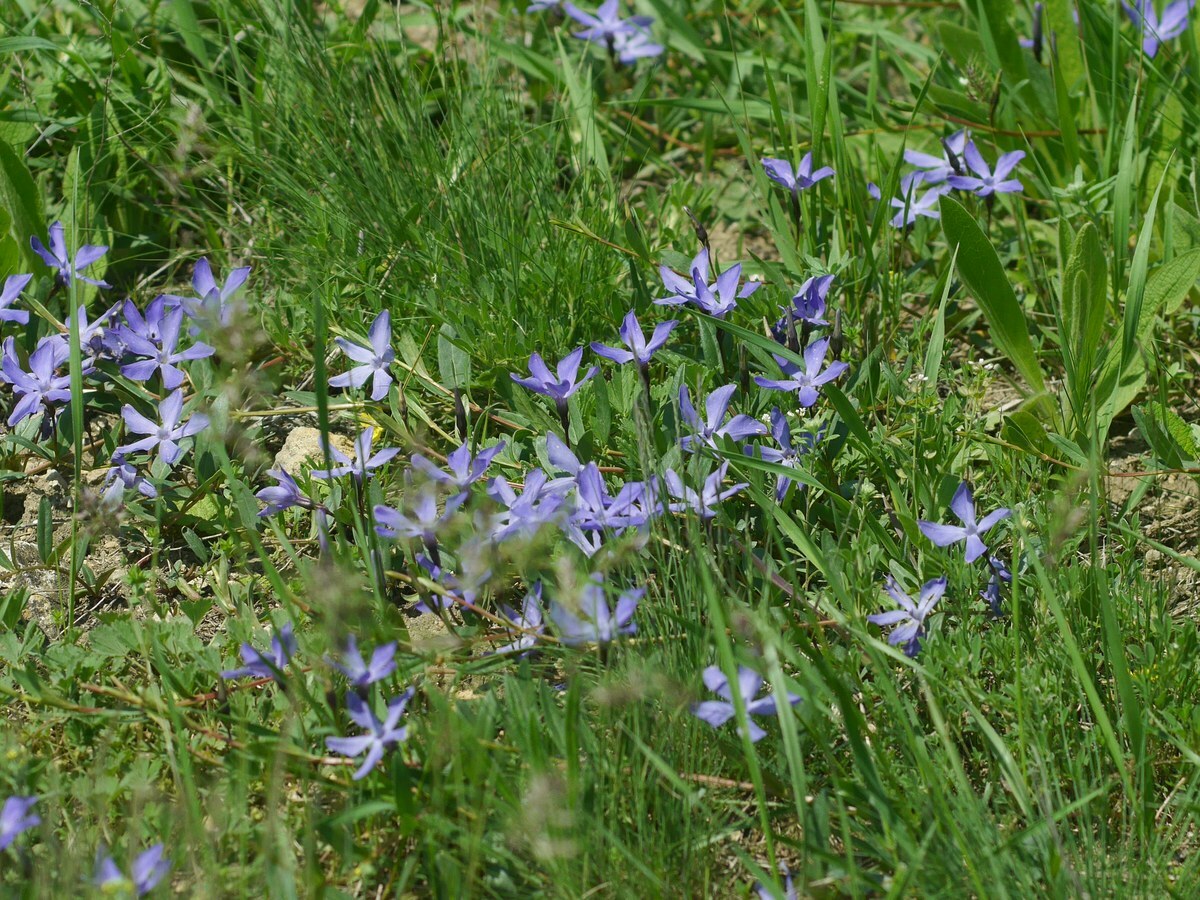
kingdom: Plantae
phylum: Tracheophyta
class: Magnoliopsida
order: Gentianales
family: Apocynaceae
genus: Vinca
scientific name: Vinca herbacea
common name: Herbaceous periwinkle
